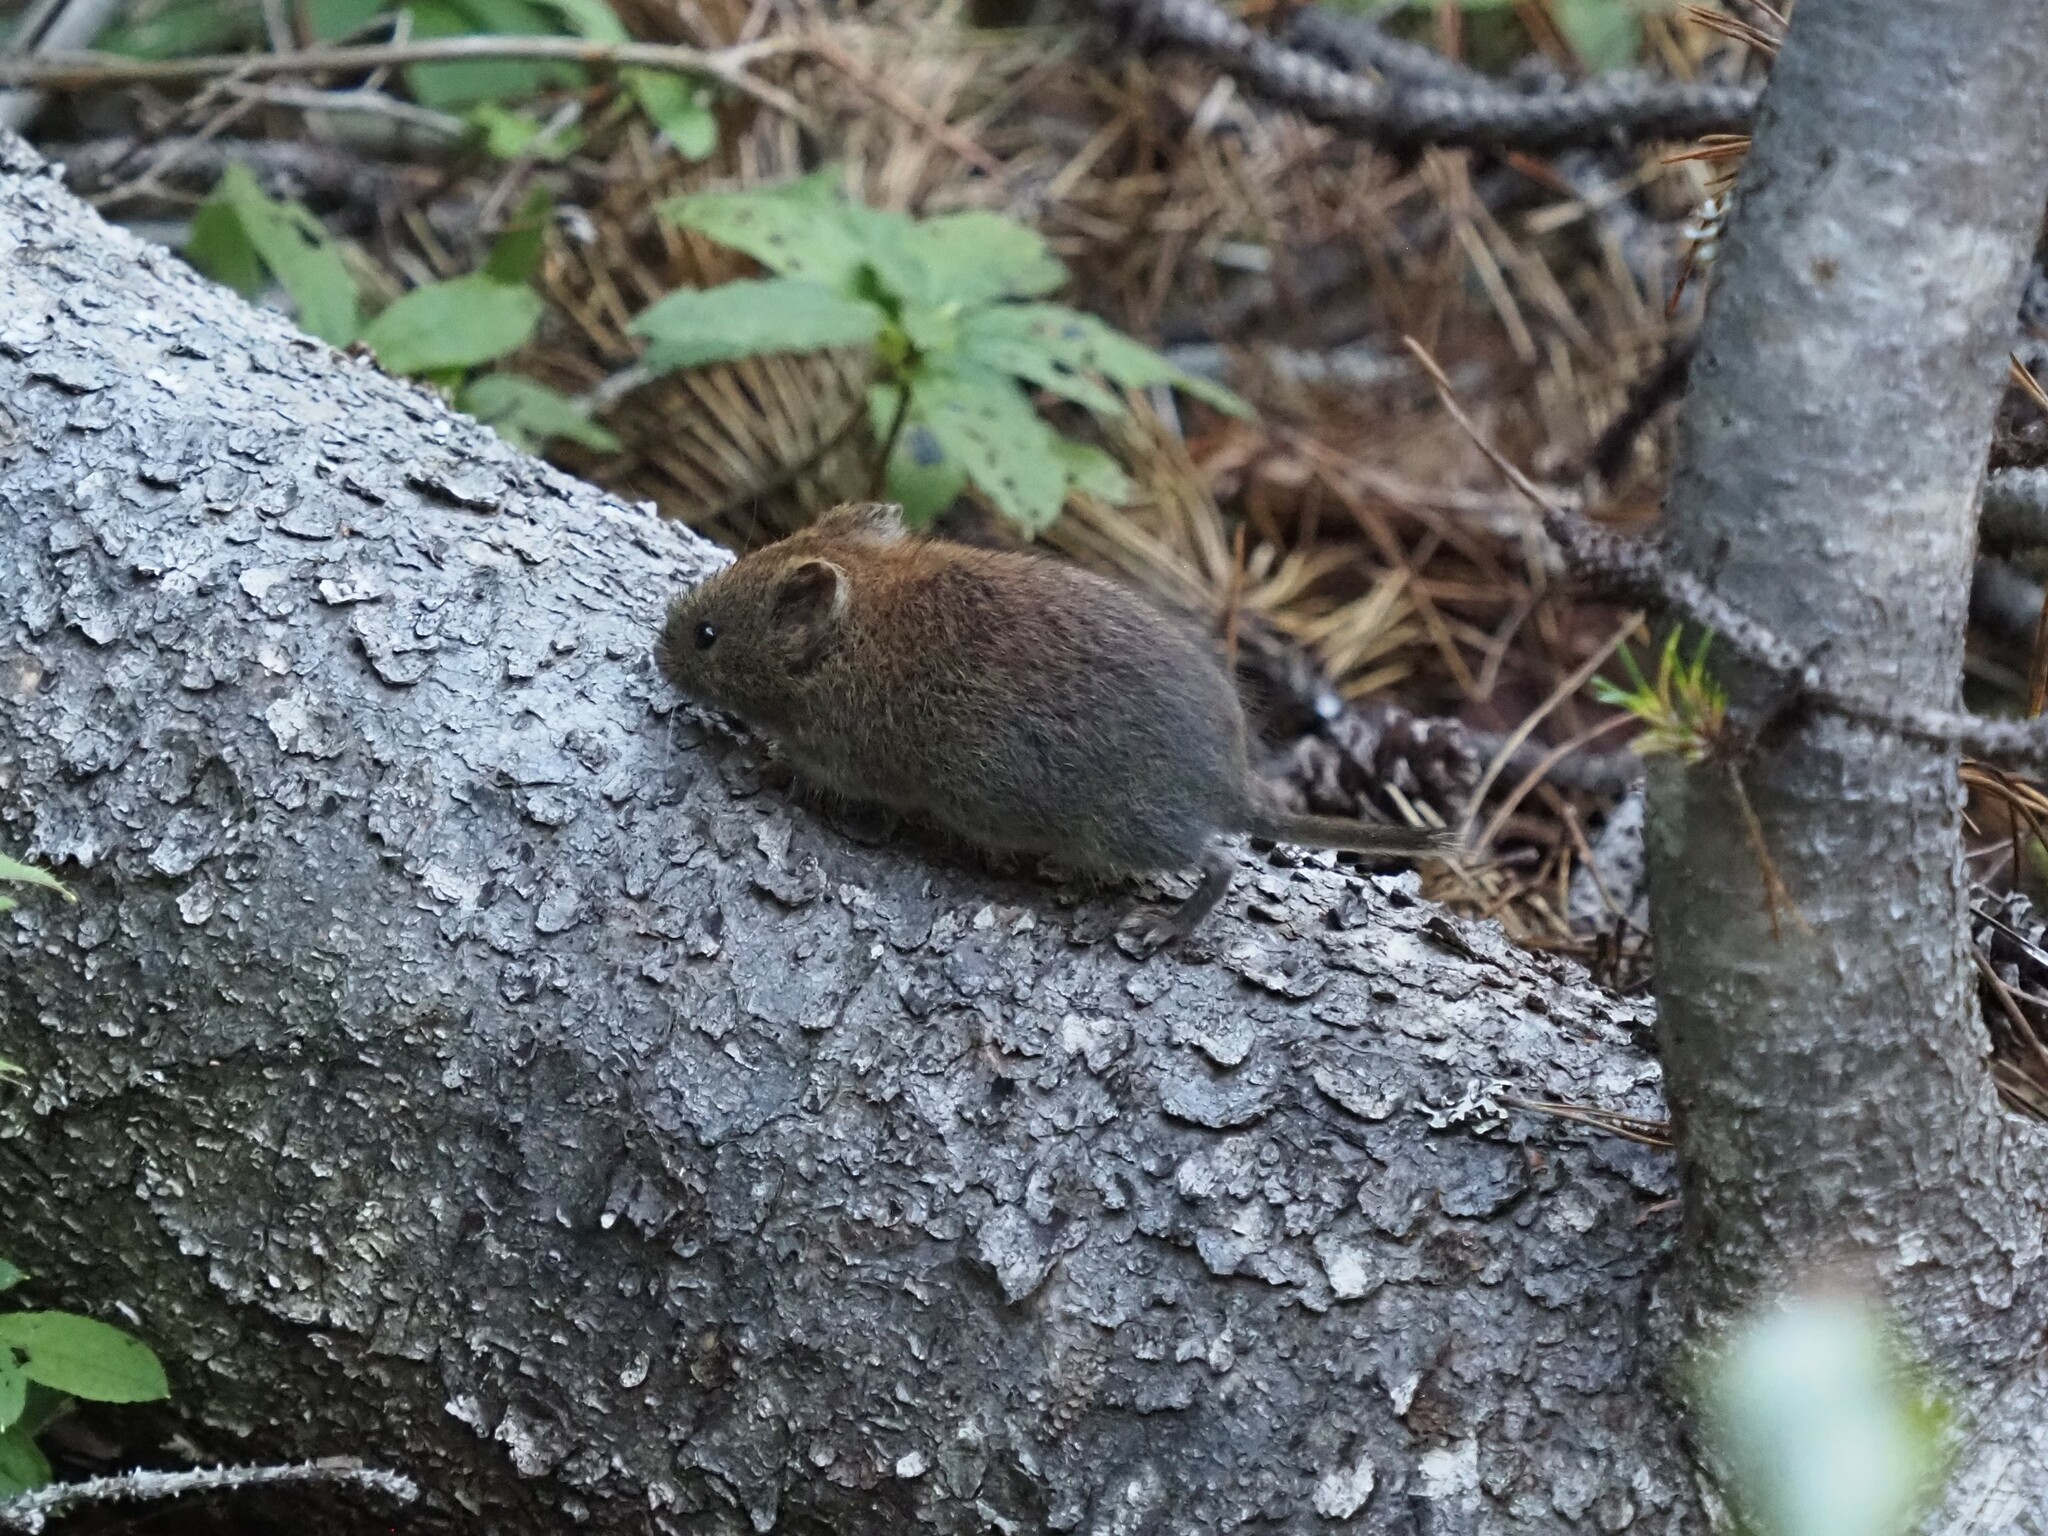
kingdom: Animalia
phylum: Chordata
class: Mammalia
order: Rodentia
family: Cricetidae
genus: Myodes
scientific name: Myodes rutilus
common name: Northern red-backed vole
